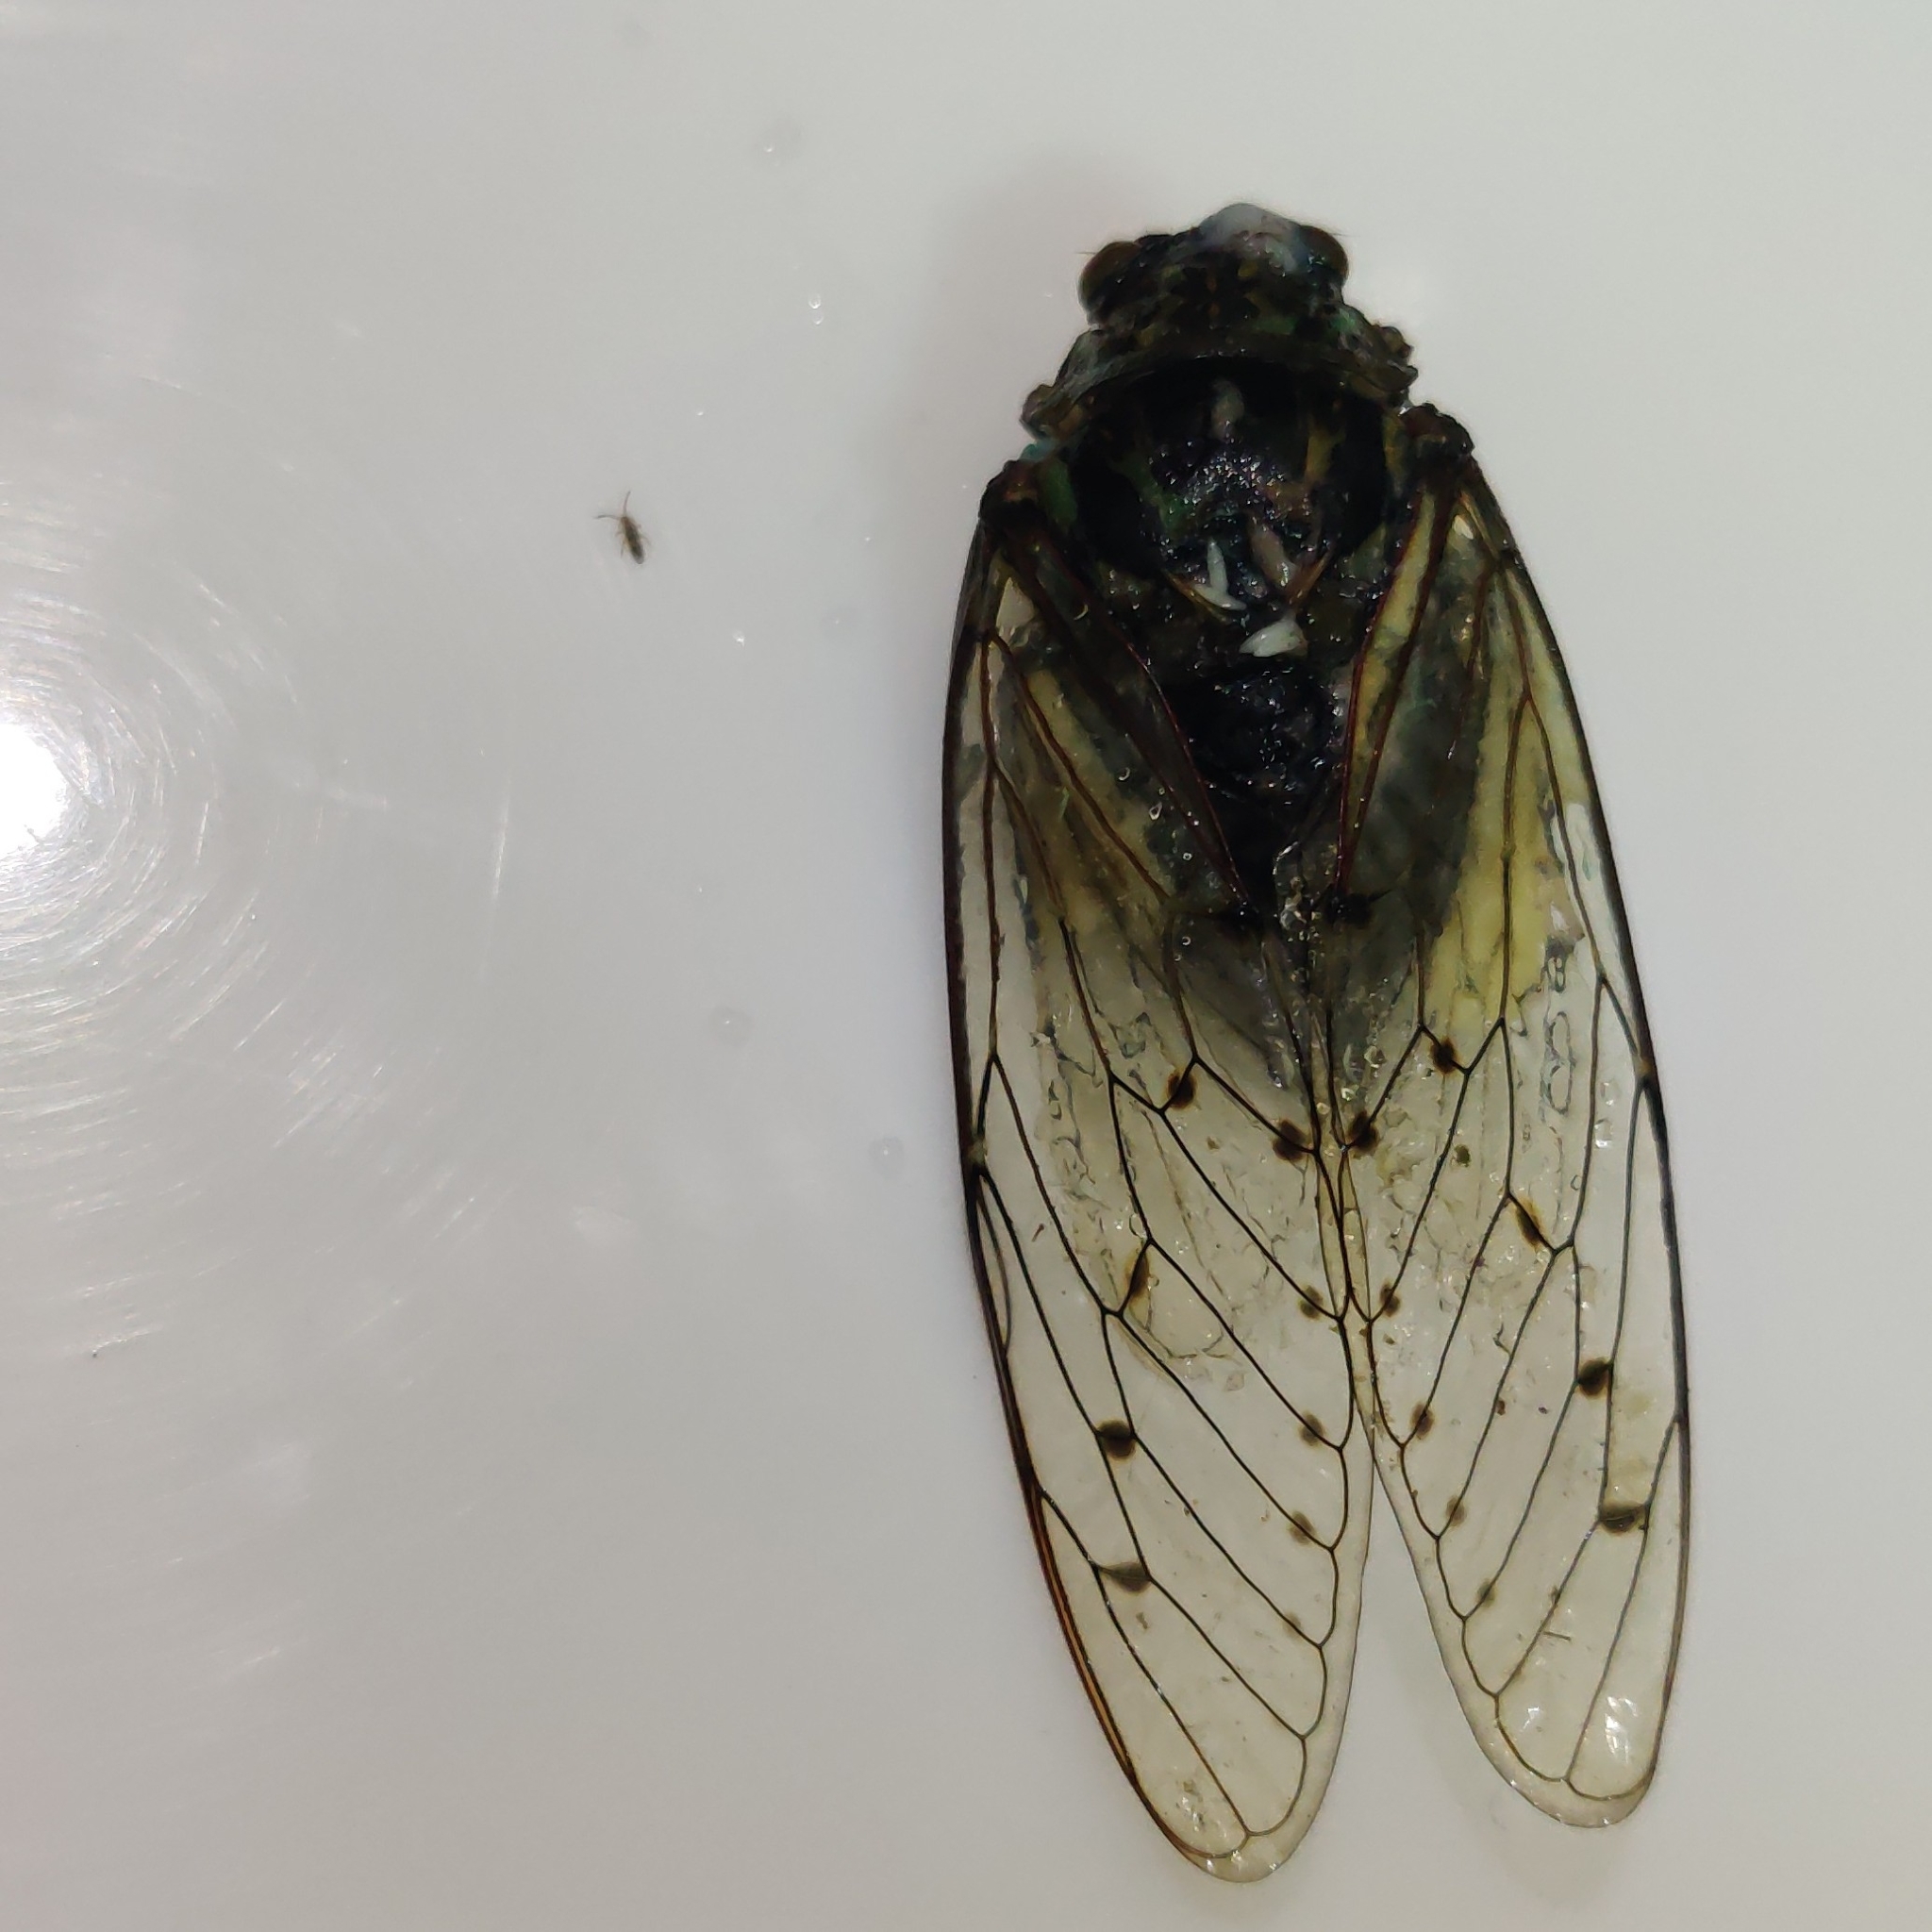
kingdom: Animalia
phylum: Arthropoda
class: Insecta
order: Hemiptera
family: Cicadidae
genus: Hyalessa
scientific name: Hyalessa obnubila
